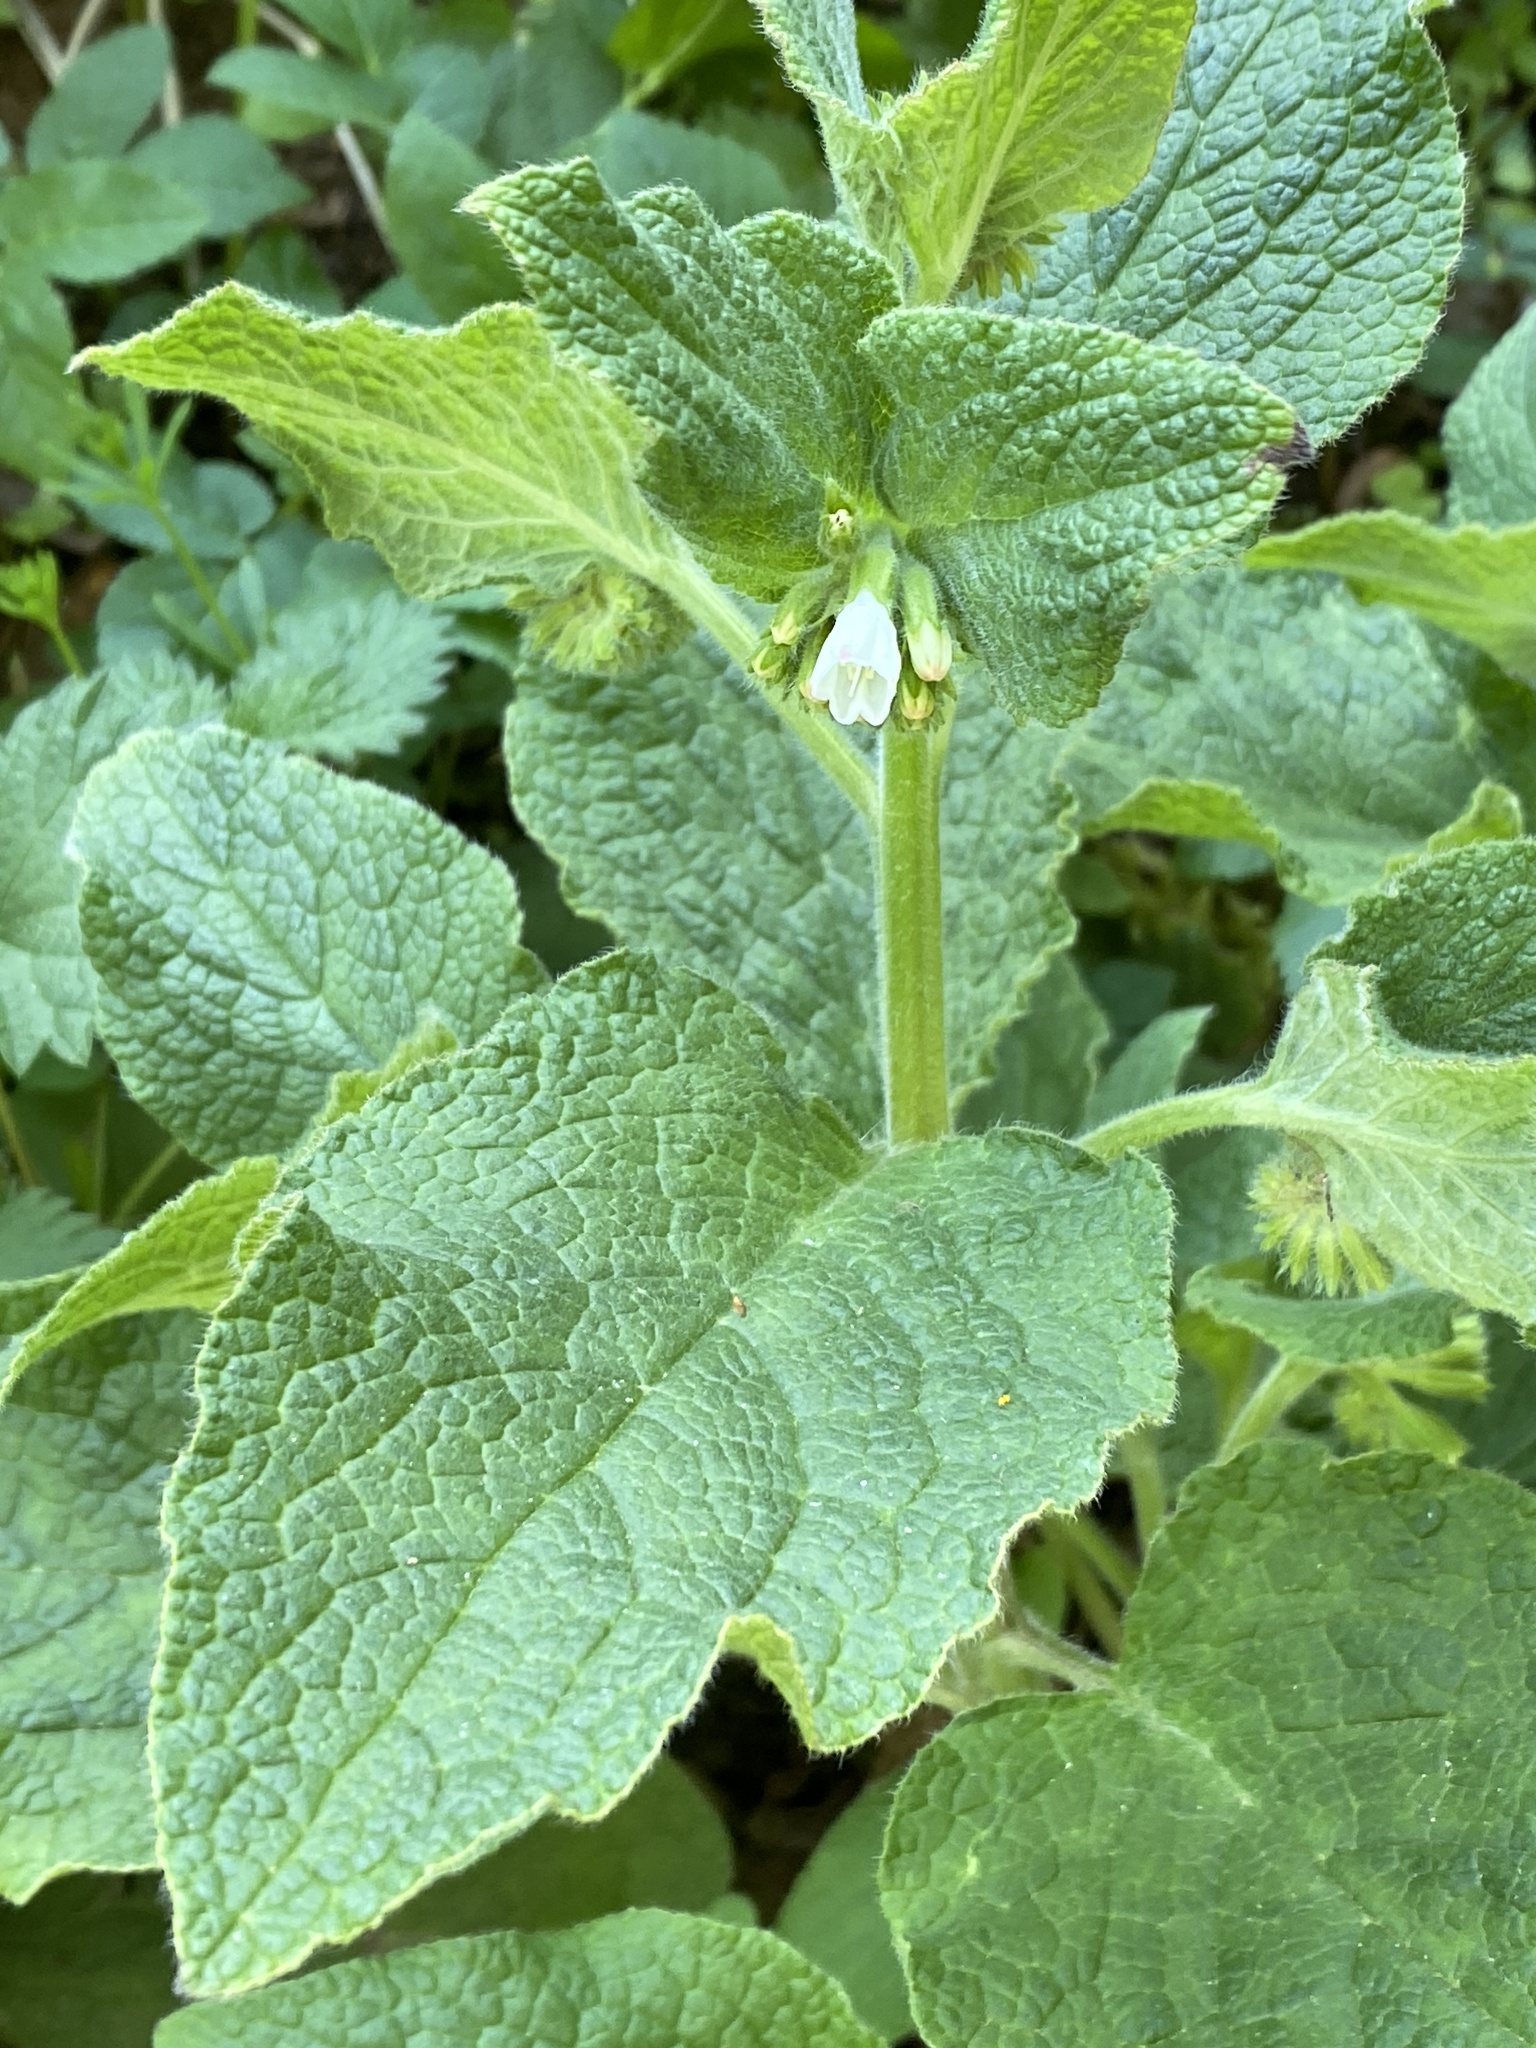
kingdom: Plantae
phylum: Tracheophyta
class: Magnoliopsida
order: Boraginales
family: Boraginaceae
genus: Symphytum
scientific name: Symphytum orientale
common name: White comfrey
